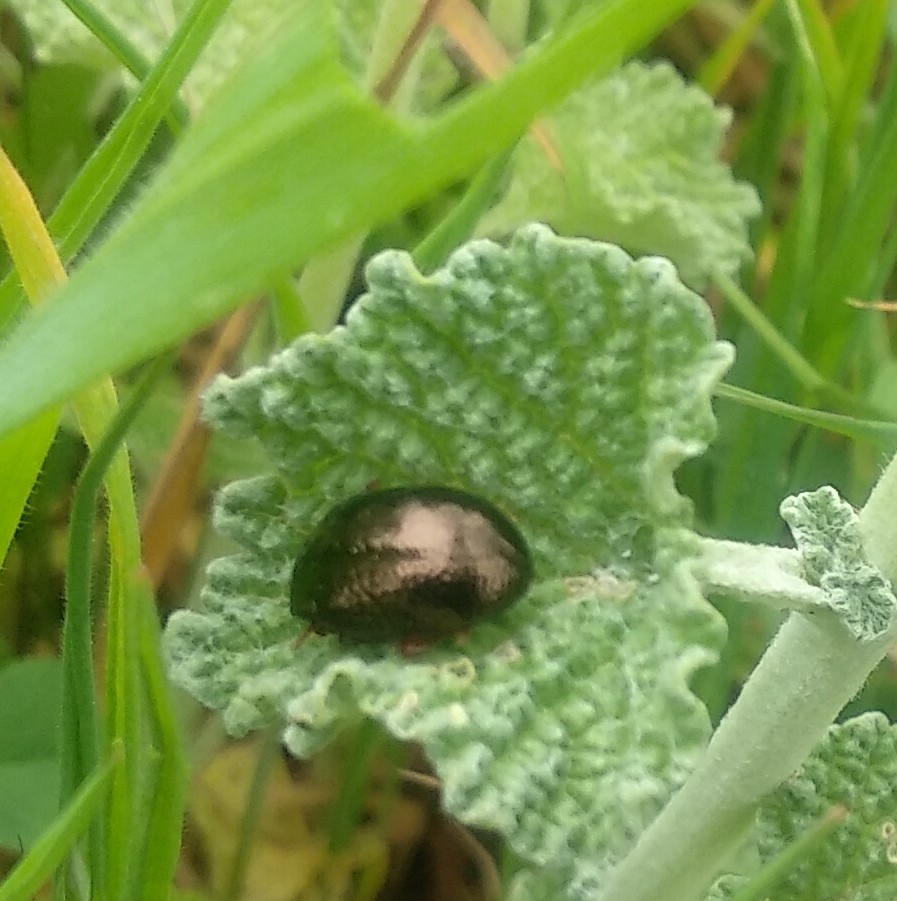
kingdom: Animalia
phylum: Arthropoda
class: Insecta
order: Coleoptera
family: Chrysomelidae
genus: Chrysolina
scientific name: Chrysolina bankii
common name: Leaf beetle
